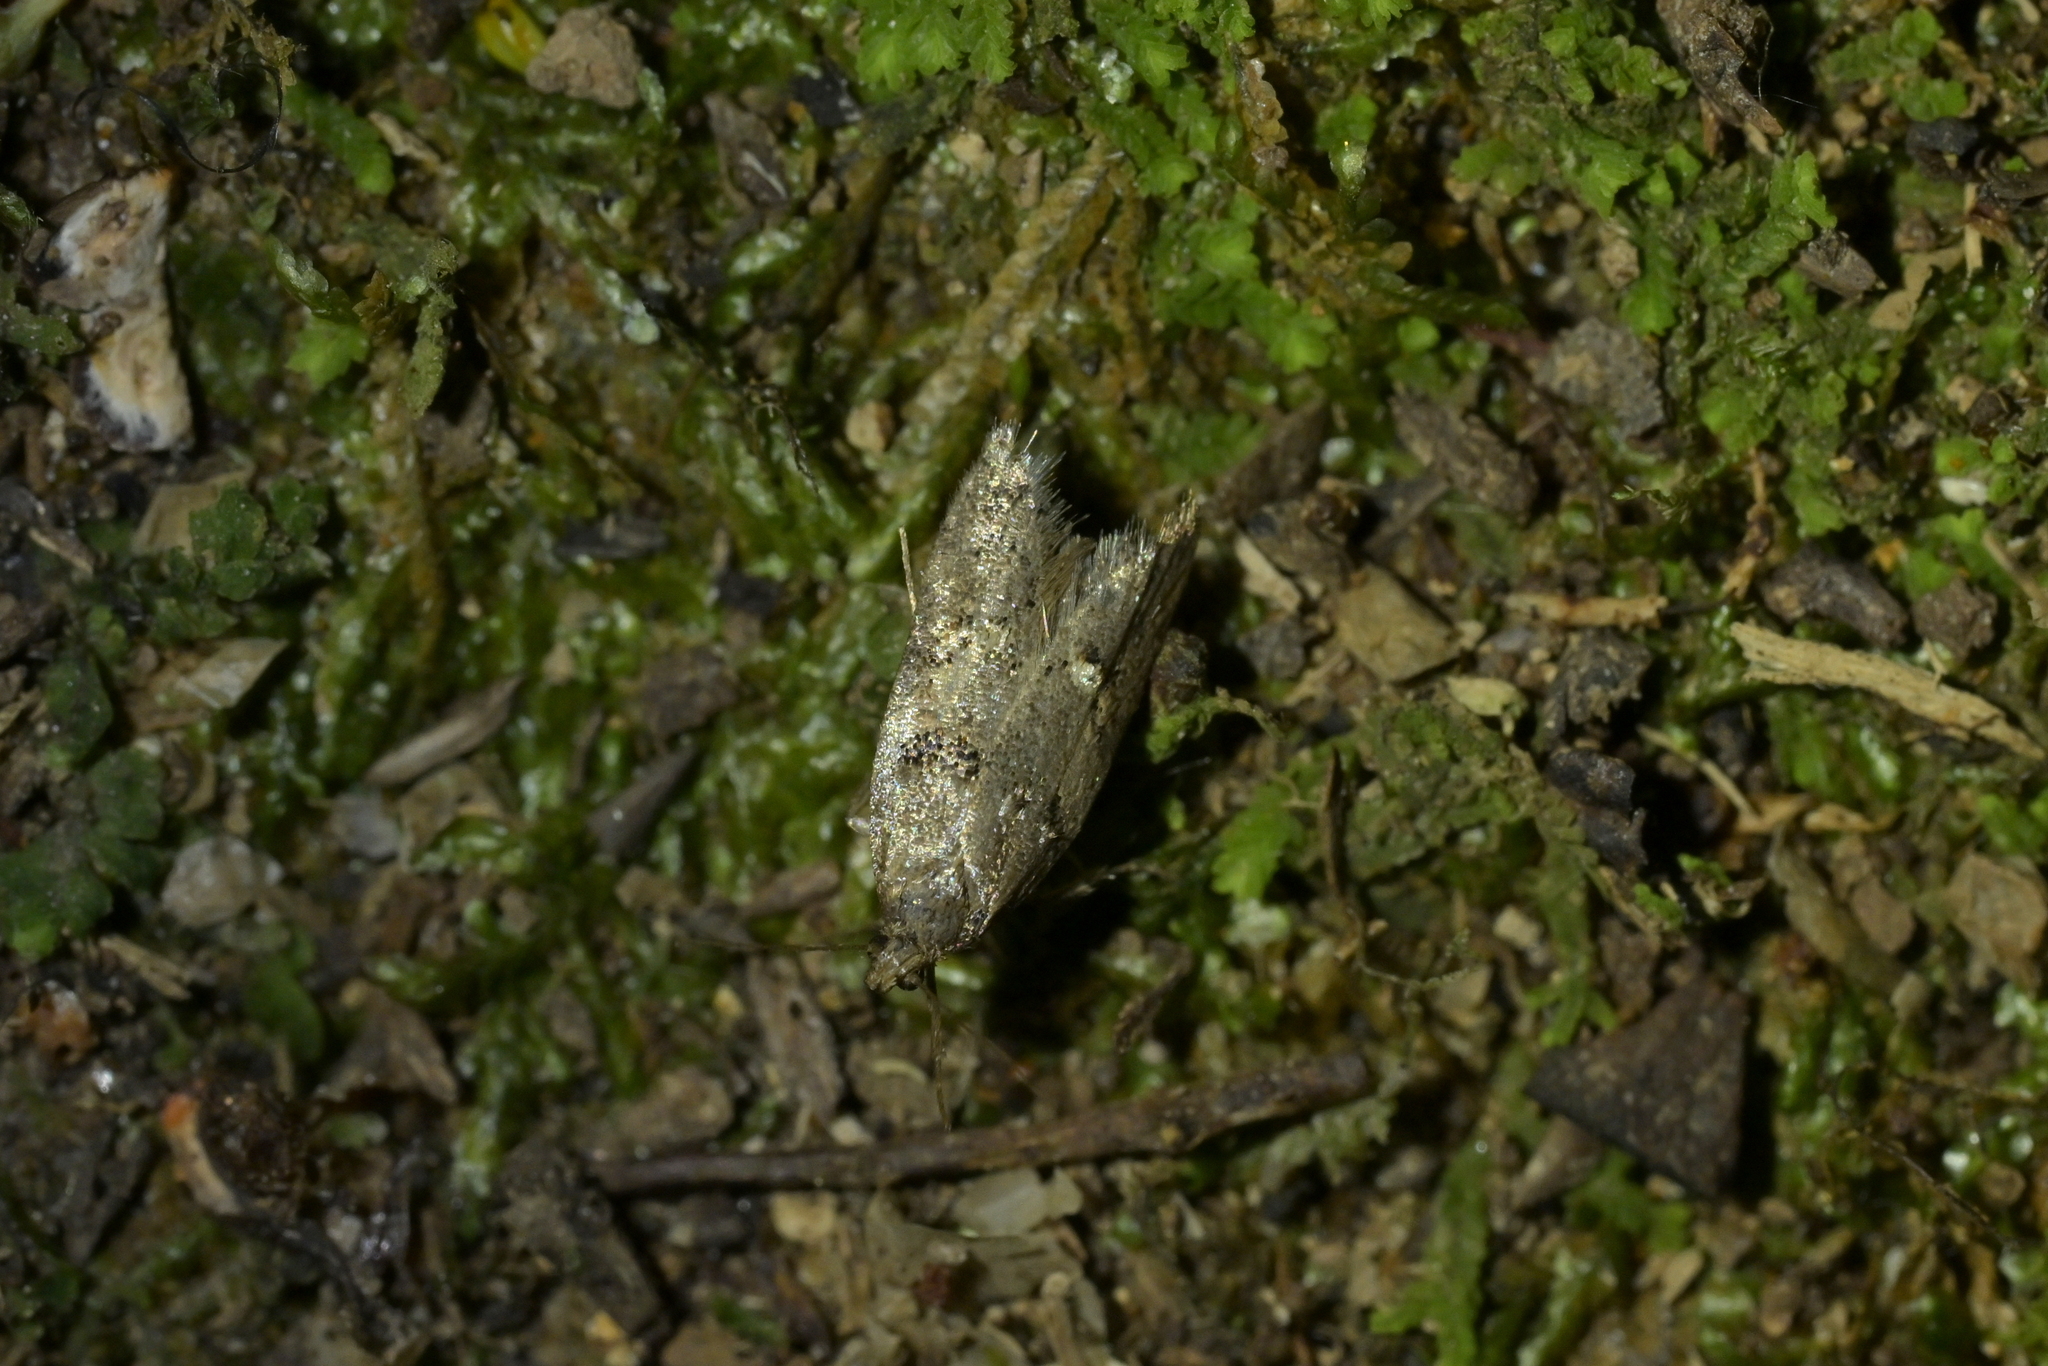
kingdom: Animalia
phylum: Arthropoda
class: Insecta
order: Lepidoptera
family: Oecophoridae
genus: Trachypepla
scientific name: Trachypepla contritella
